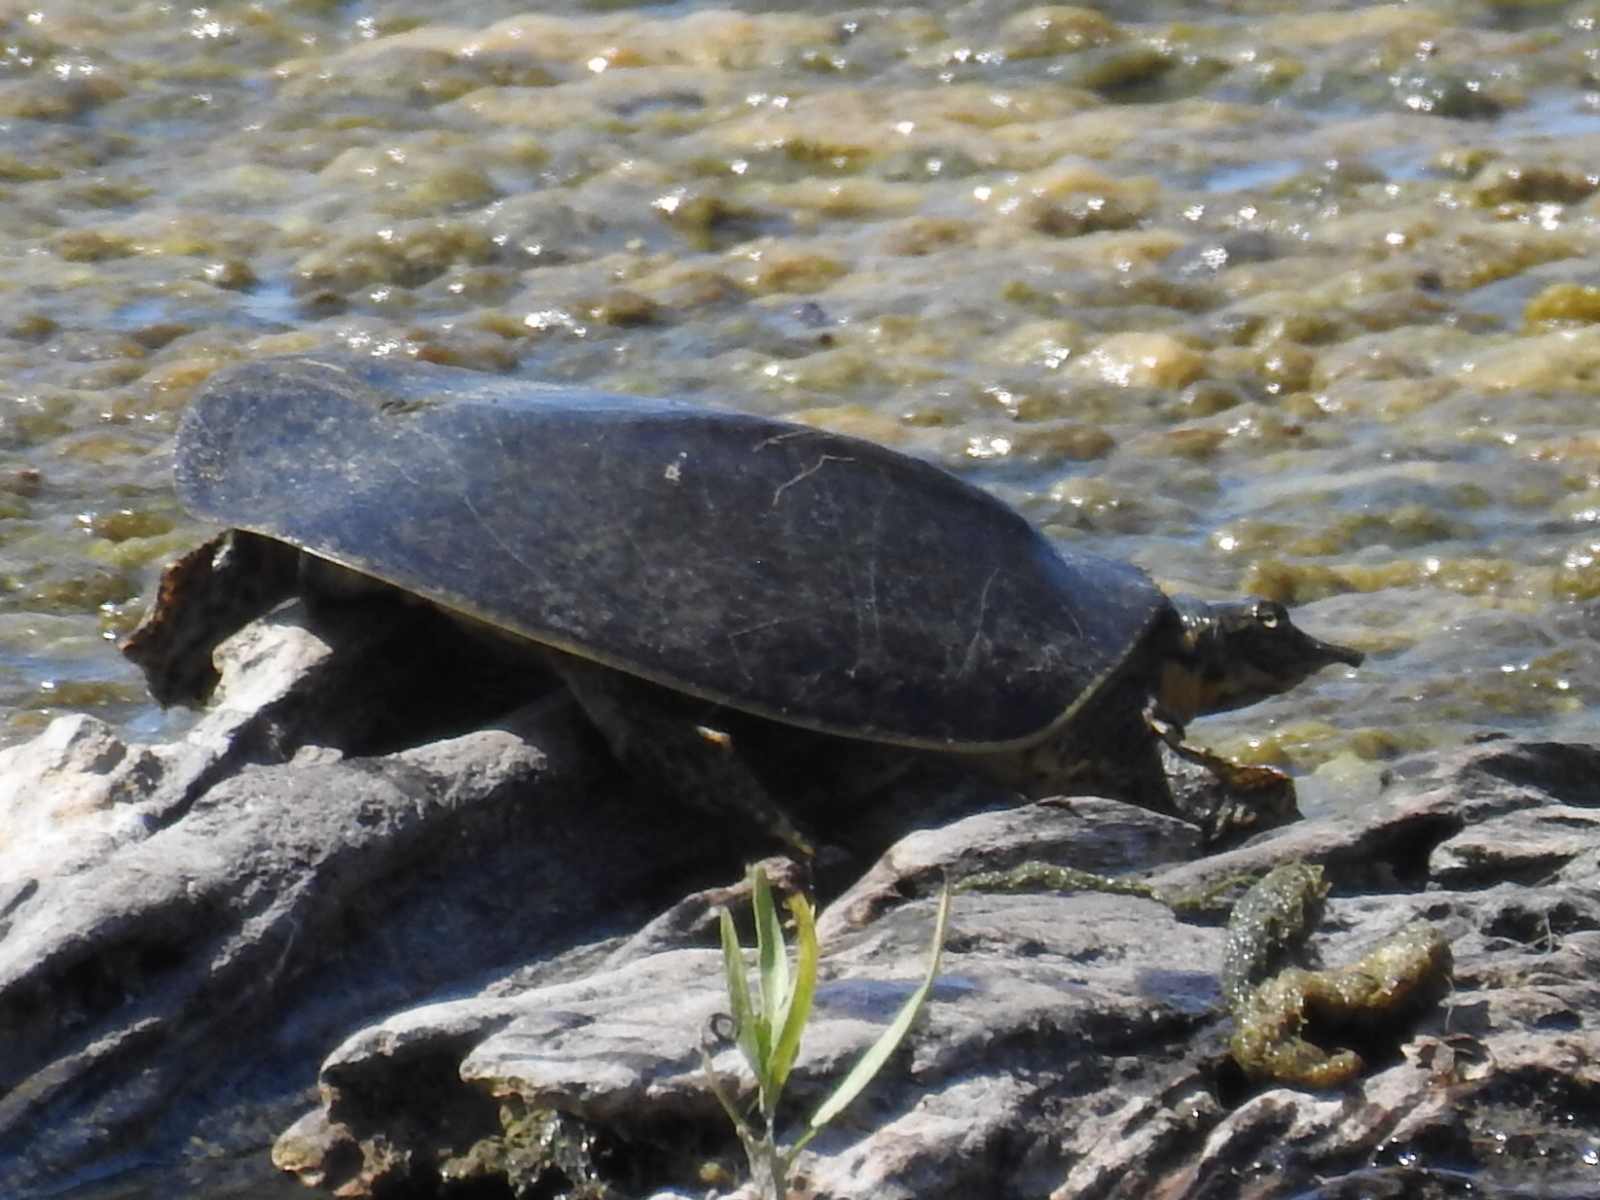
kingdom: Animalia
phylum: Chordata
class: Testudines
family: Trionychidae
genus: Apalone
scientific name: Apalone spinifera
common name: Spiny softshell turtle
